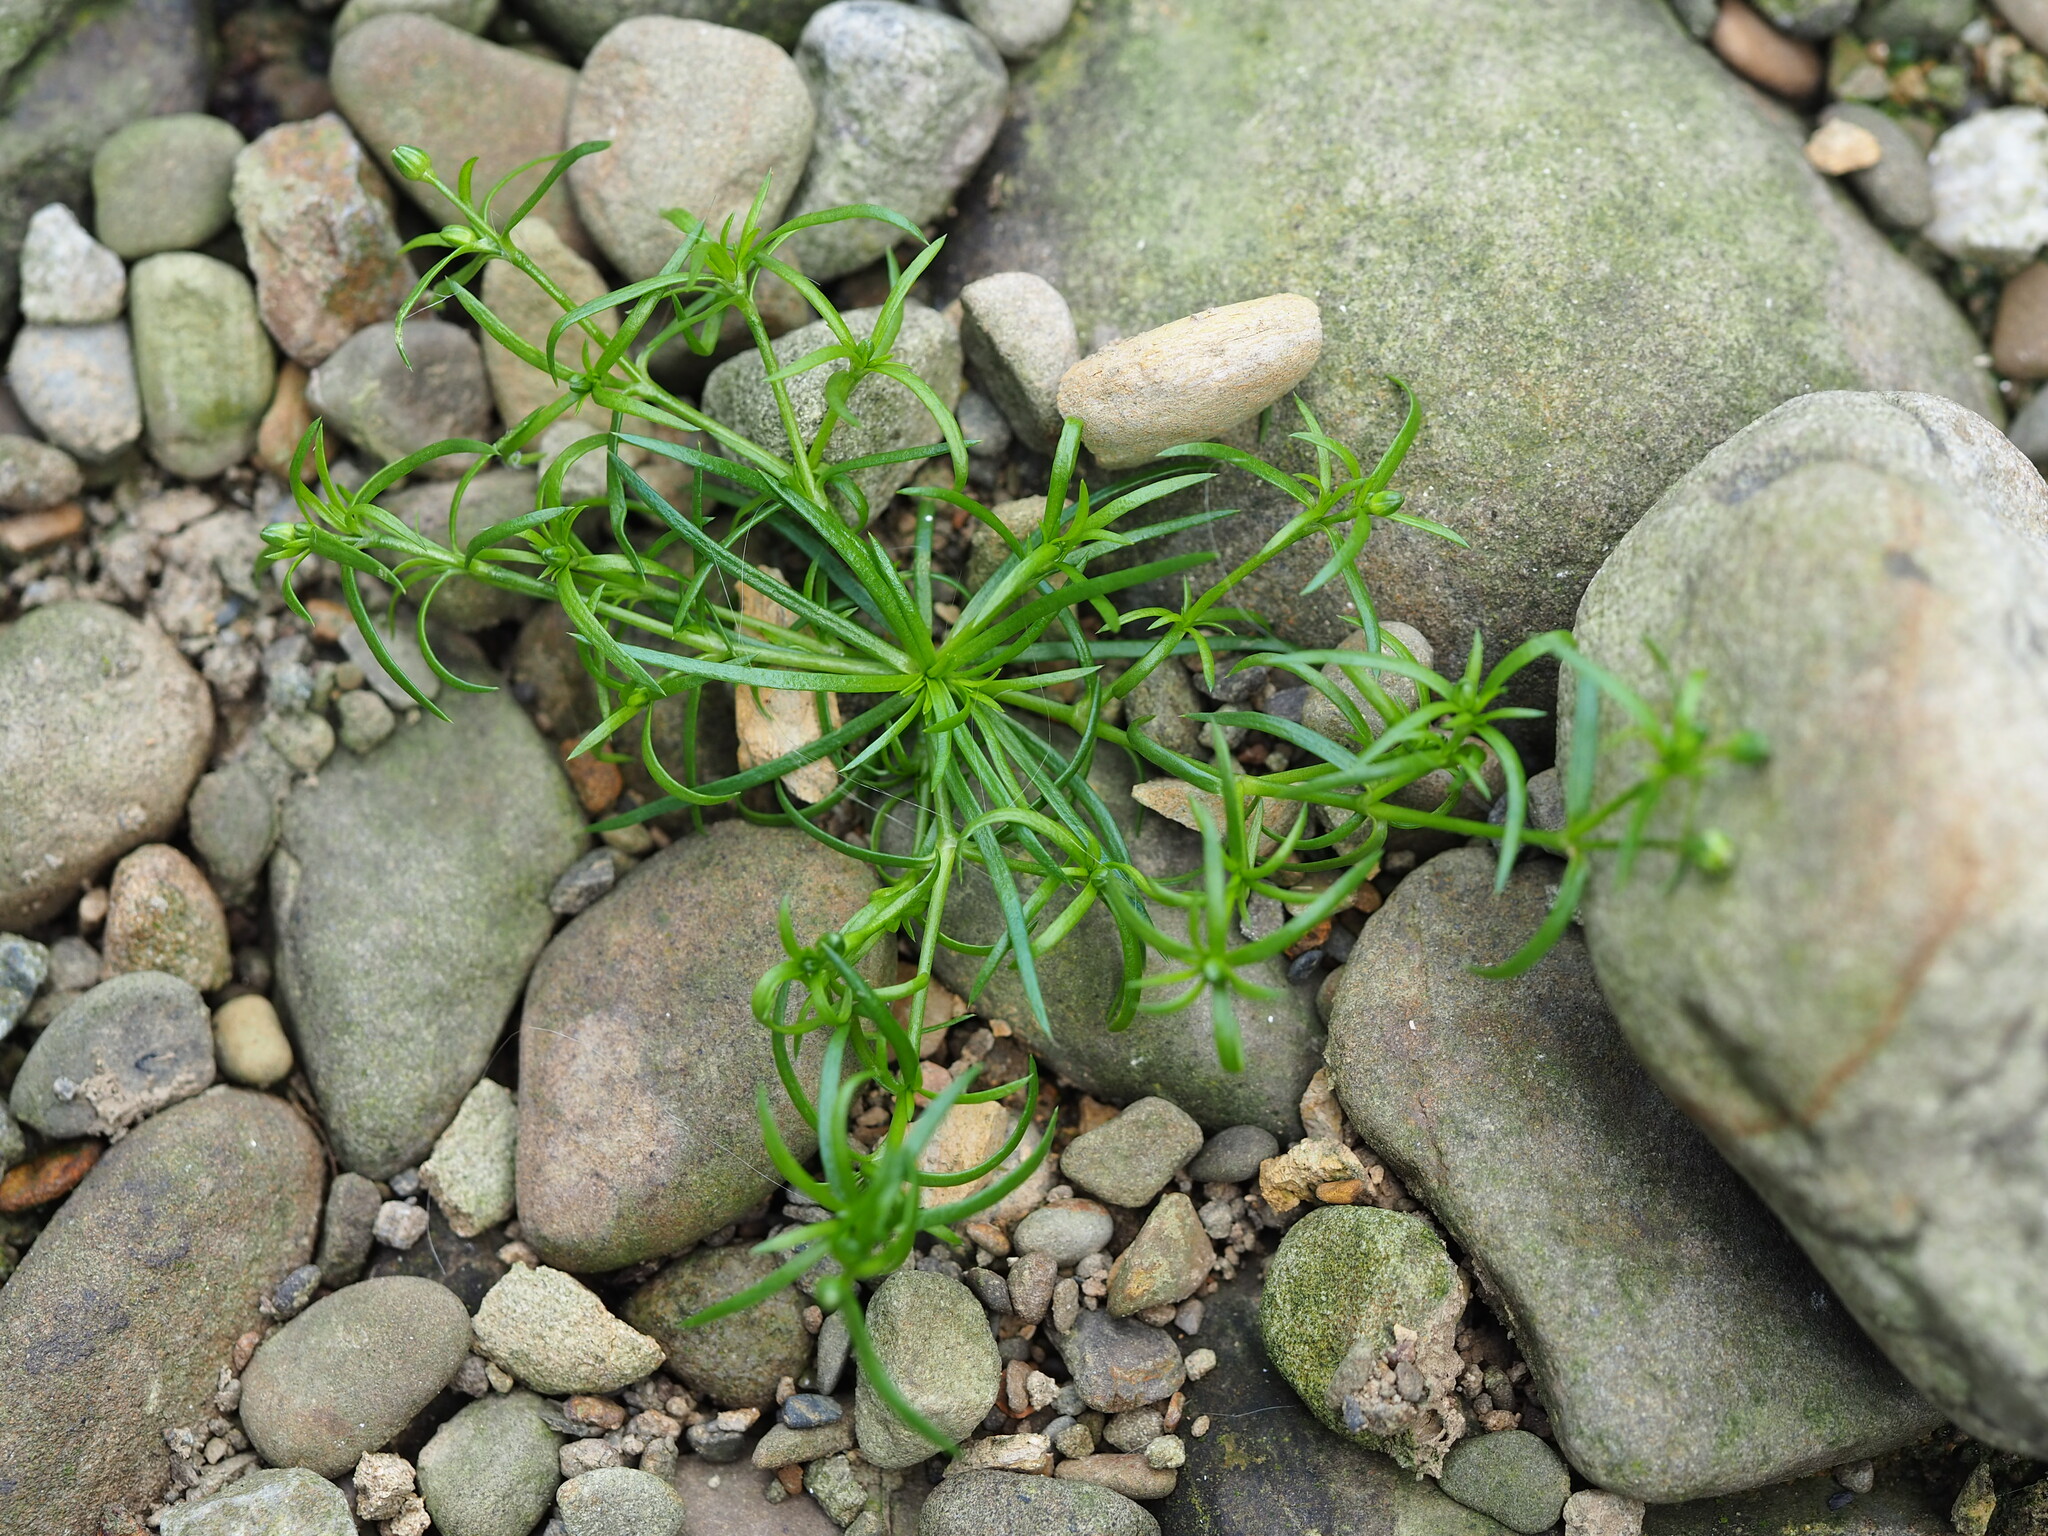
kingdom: Plantae
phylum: Tracheophyta
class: Magnoliopsida
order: Caryophyllales
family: Caryophyllaceae
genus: Sagina
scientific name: Sagina japonica
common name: Japanese pearlwort
